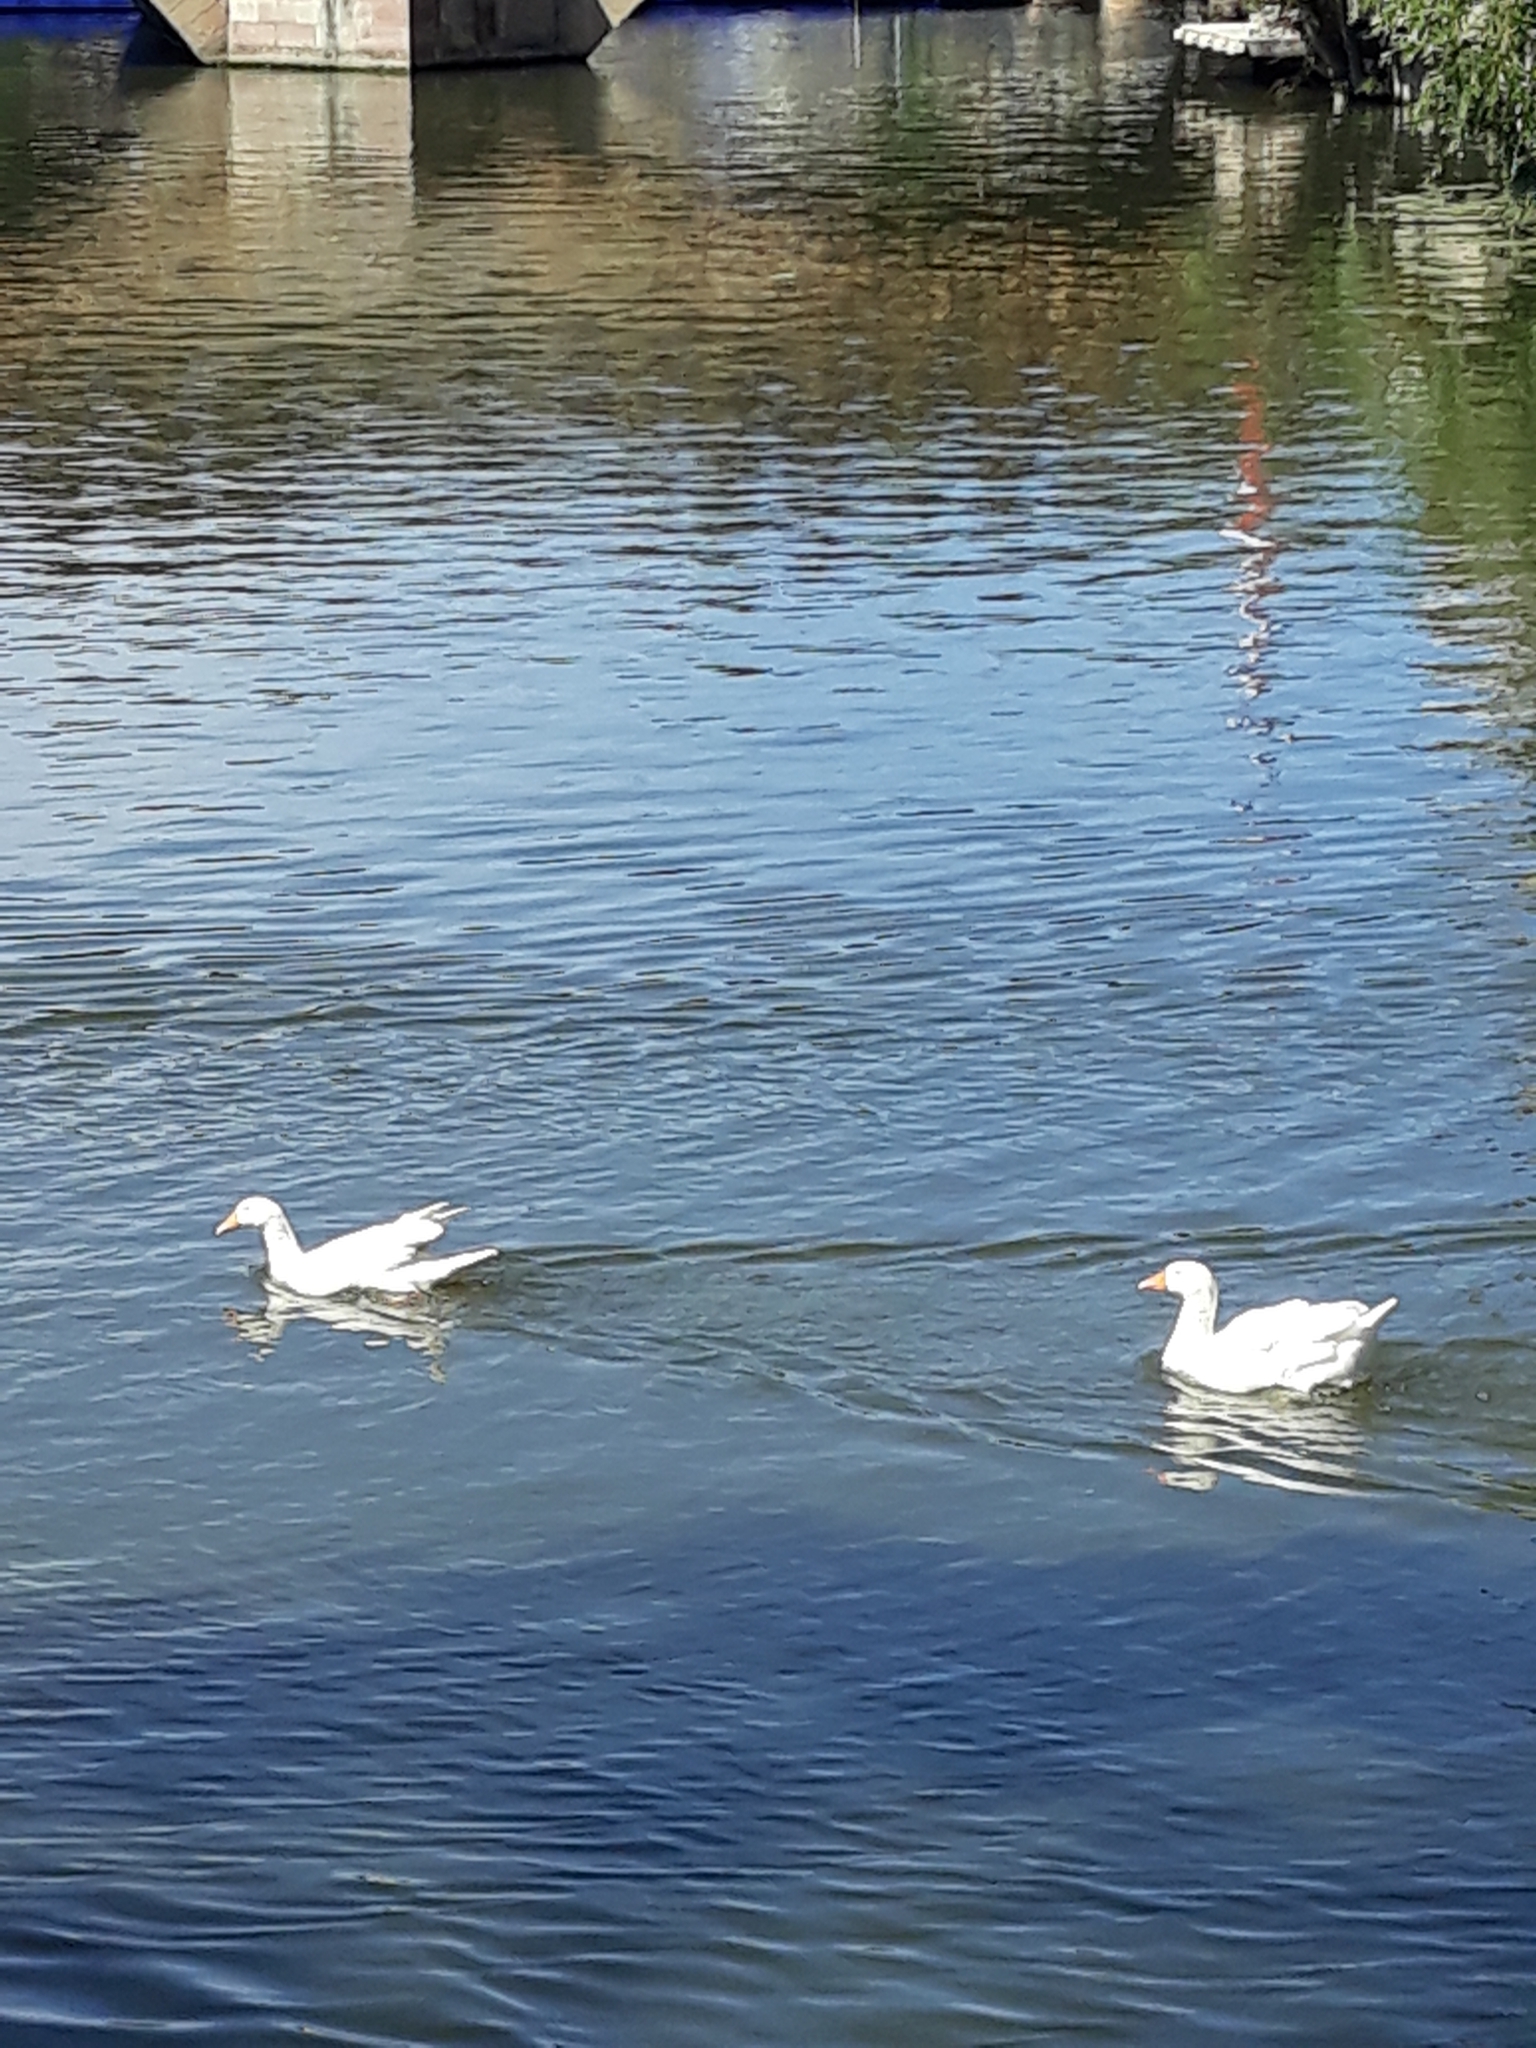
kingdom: Animalia
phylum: Chordata
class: Aves
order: Anseriformes
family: Anatidae
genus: Anser
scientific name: Anser anser
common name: Greylag goose
